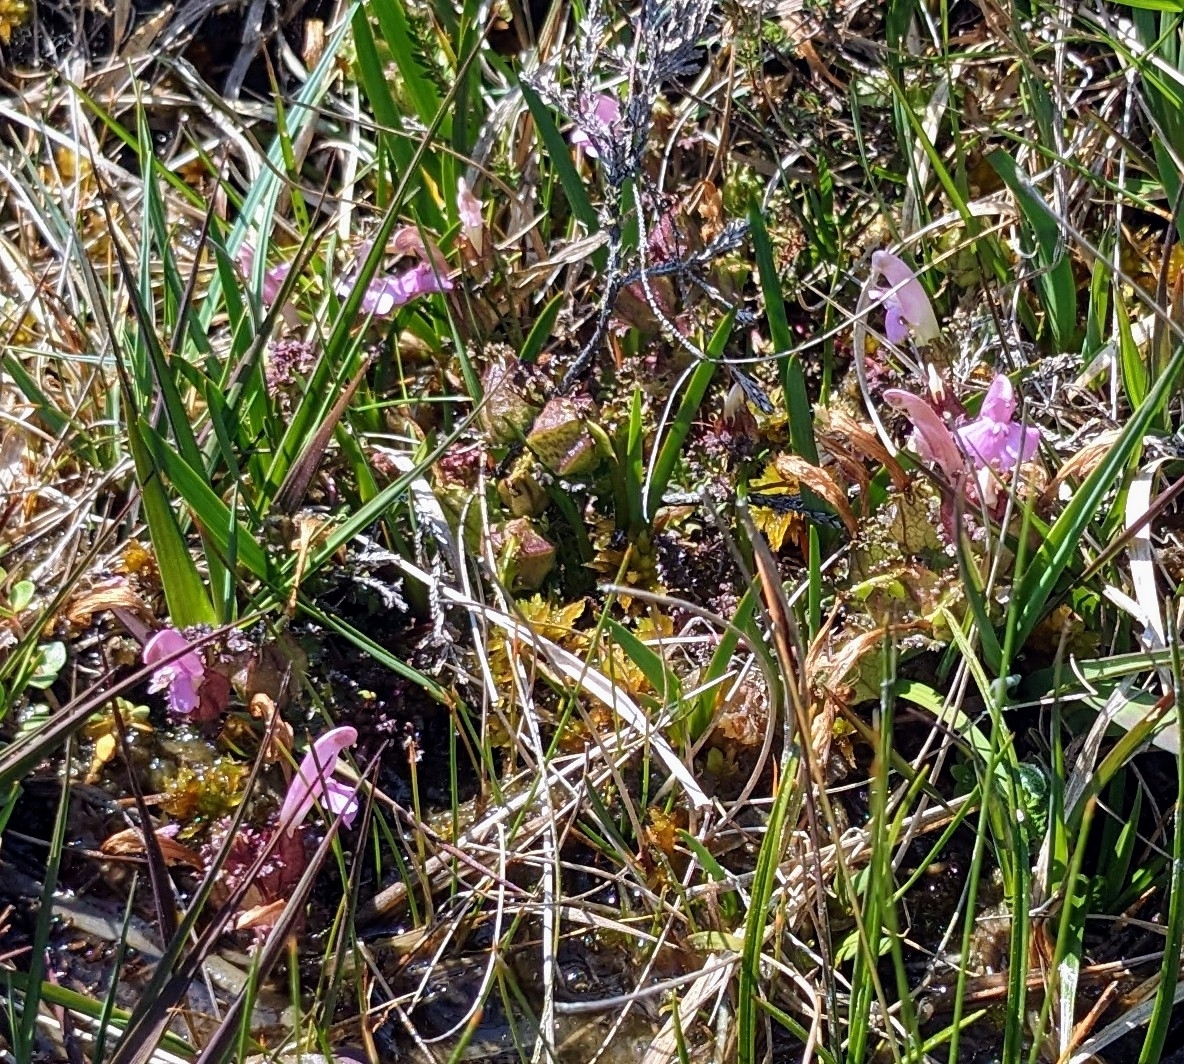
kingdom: Plantae
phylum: Tracheophyta
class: Magnoliopsida
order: Lamiales
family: Orobanchaceae
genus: Pedicularis
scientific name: Pedicularis sylvatica
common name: Lousewort
